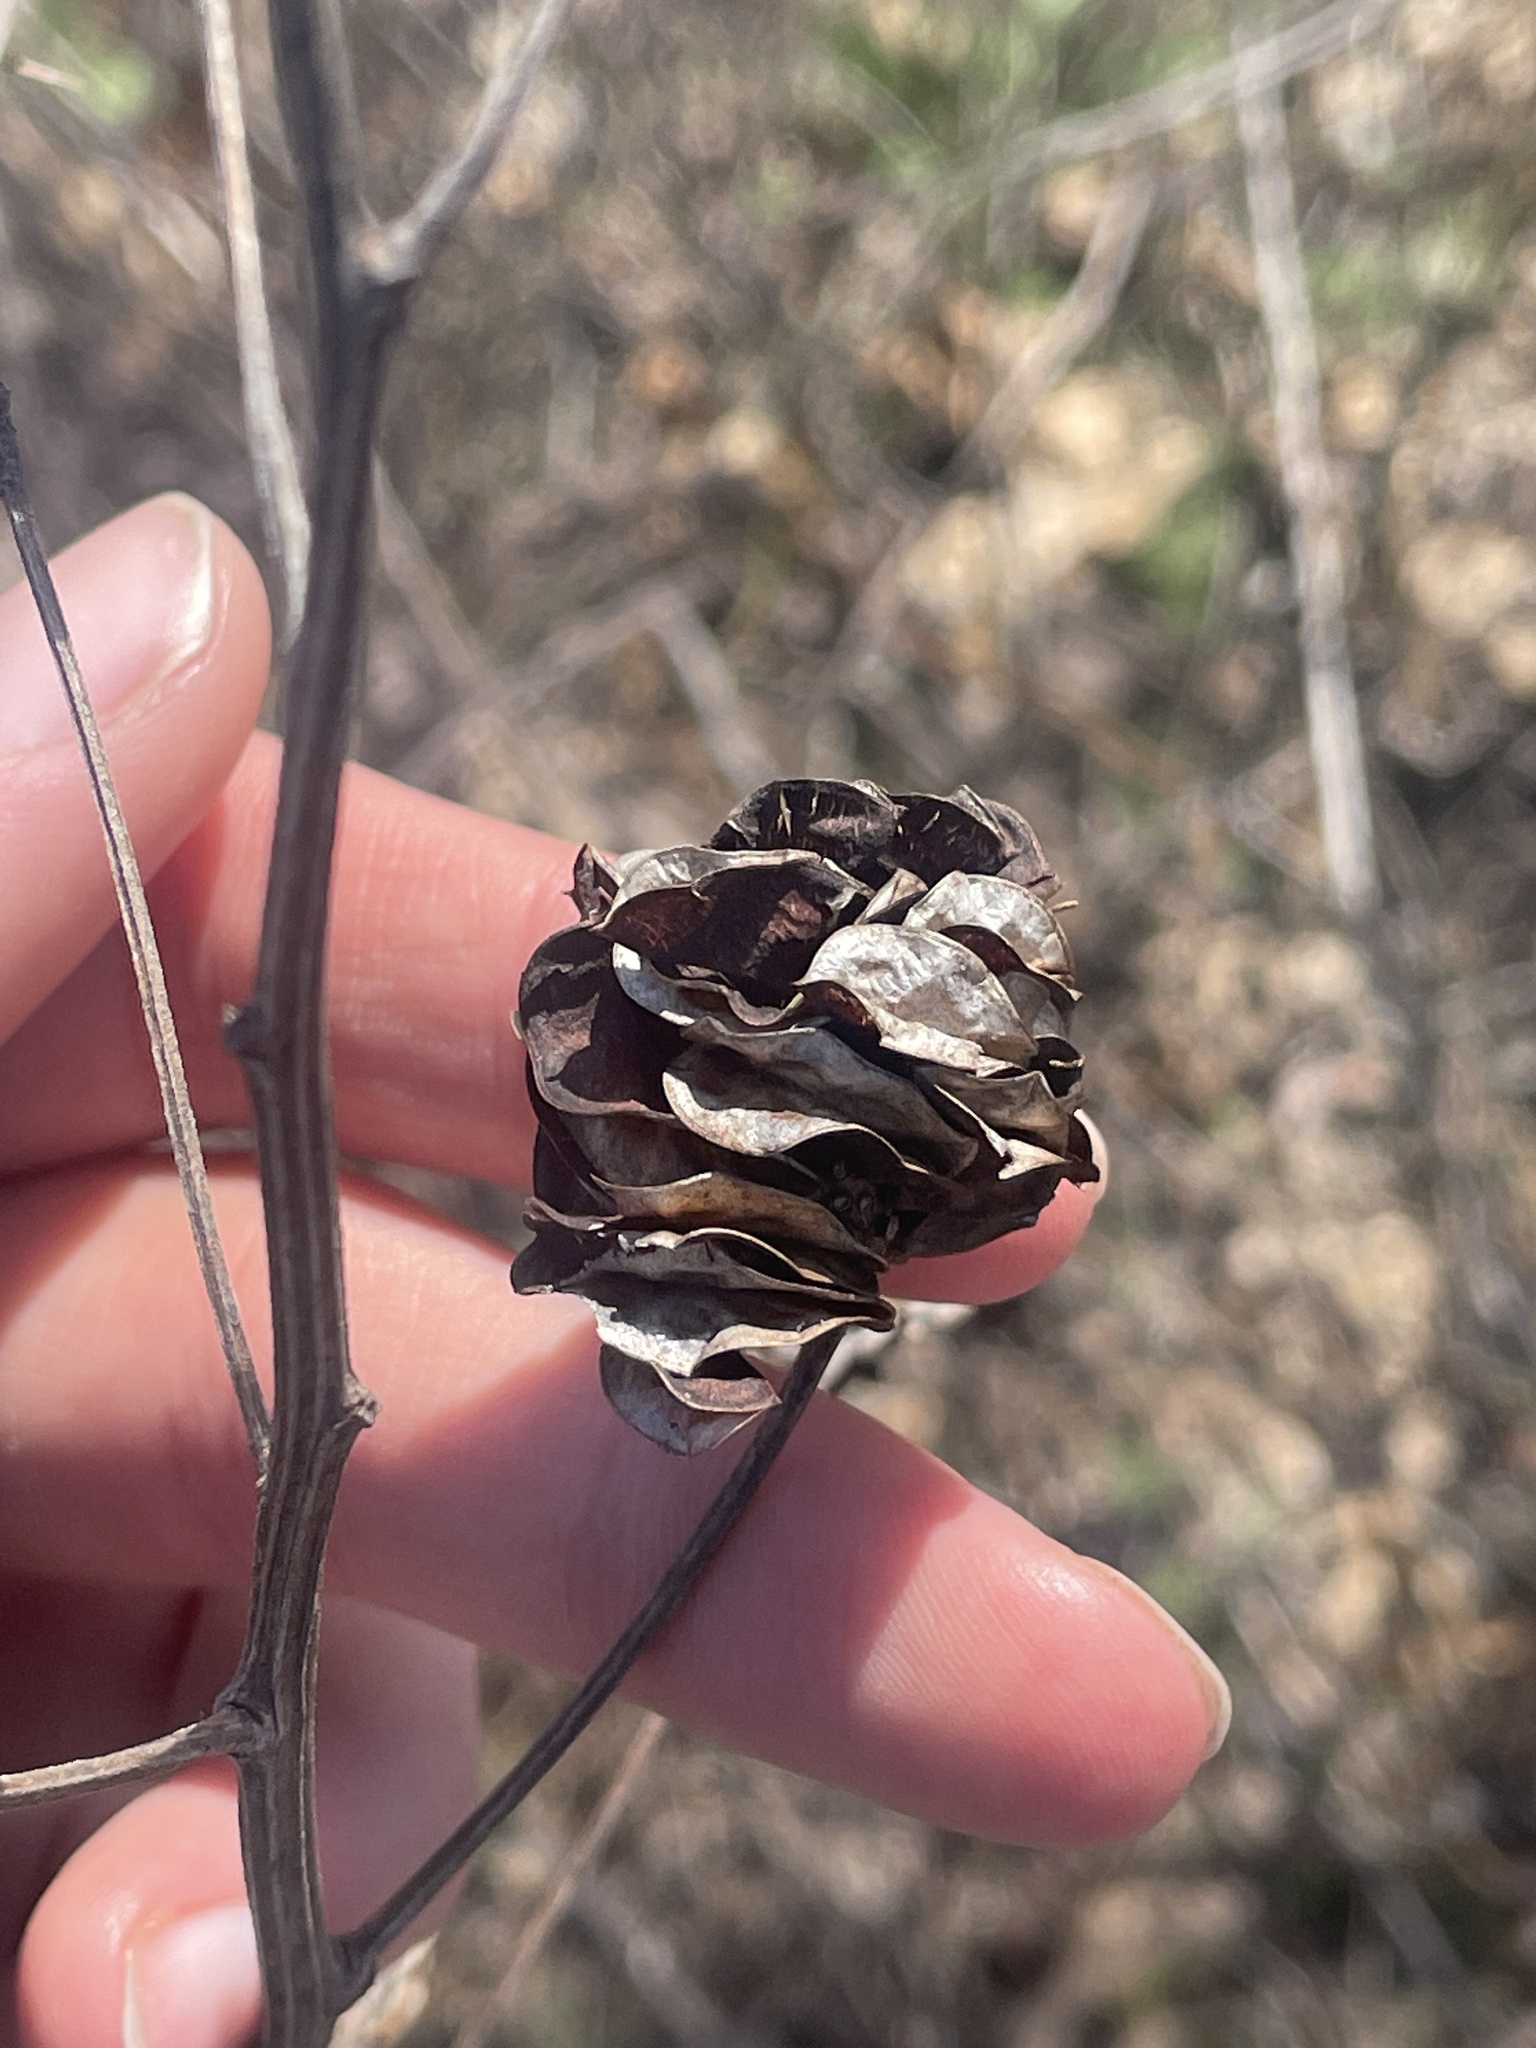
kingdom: Plantae
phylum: Tracheophyta
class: Magnoliopsida
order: Fabales
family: Fabaceae
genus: Desmanthus
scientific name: Desmanthus illinoensis
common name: Illinois bundle-flower
